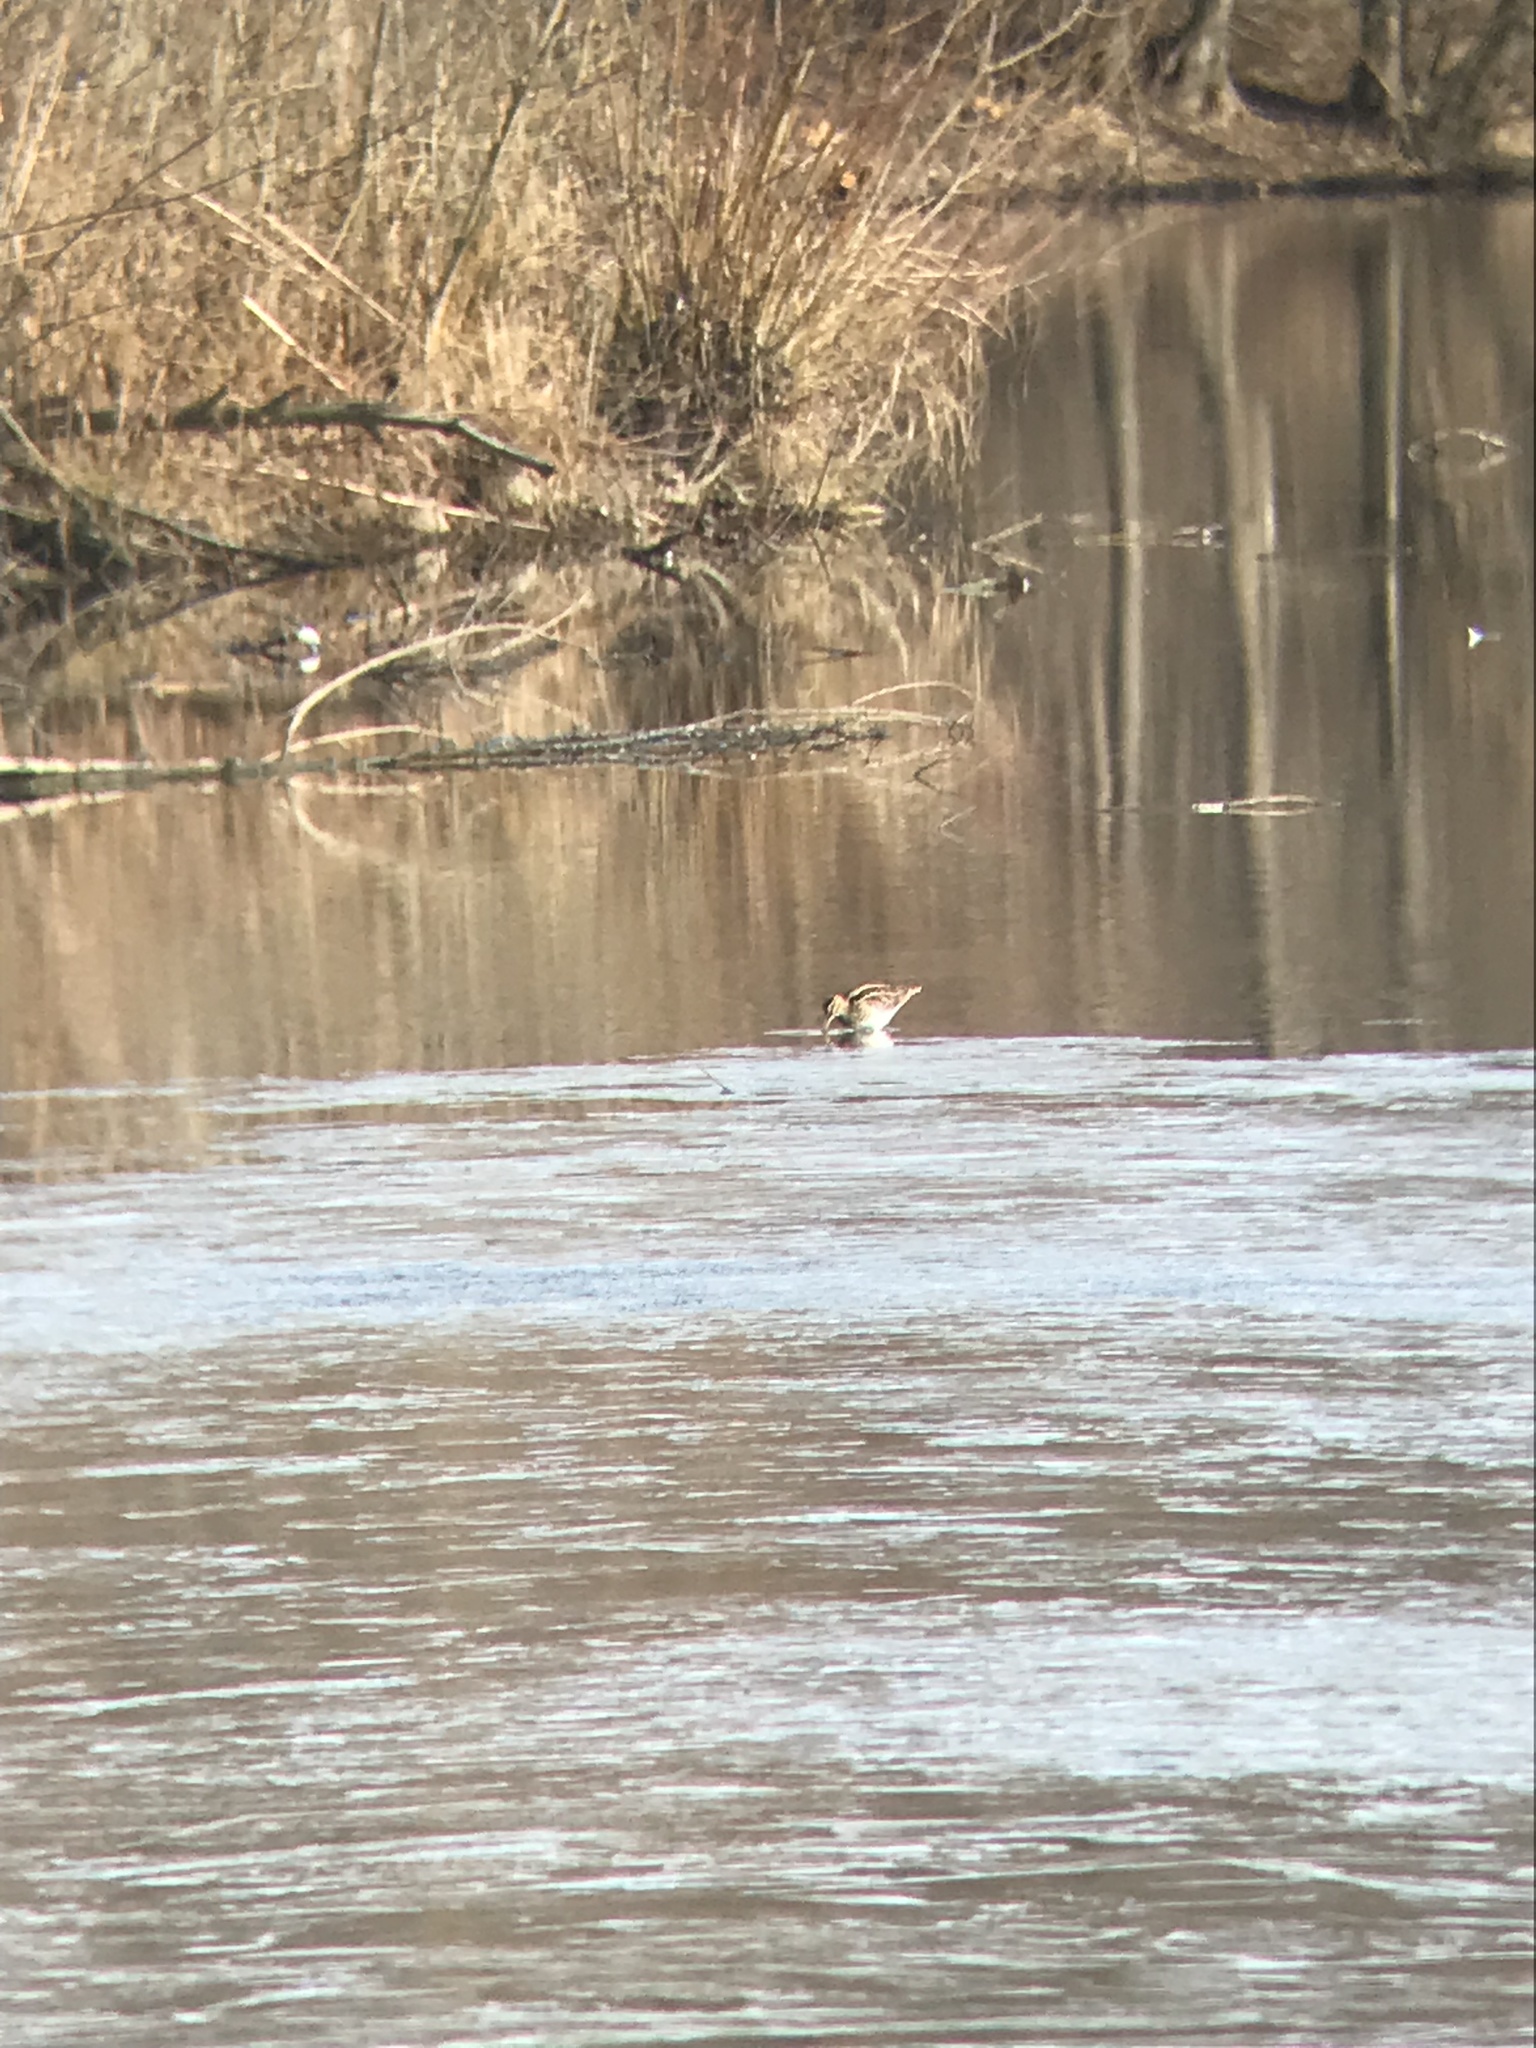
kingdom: Animalia
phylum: Chordata
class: Aves
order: Charadriiformes
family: Scolopacidae
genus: Gallinago
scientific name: Gallinago gallinago
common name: Common snipe
